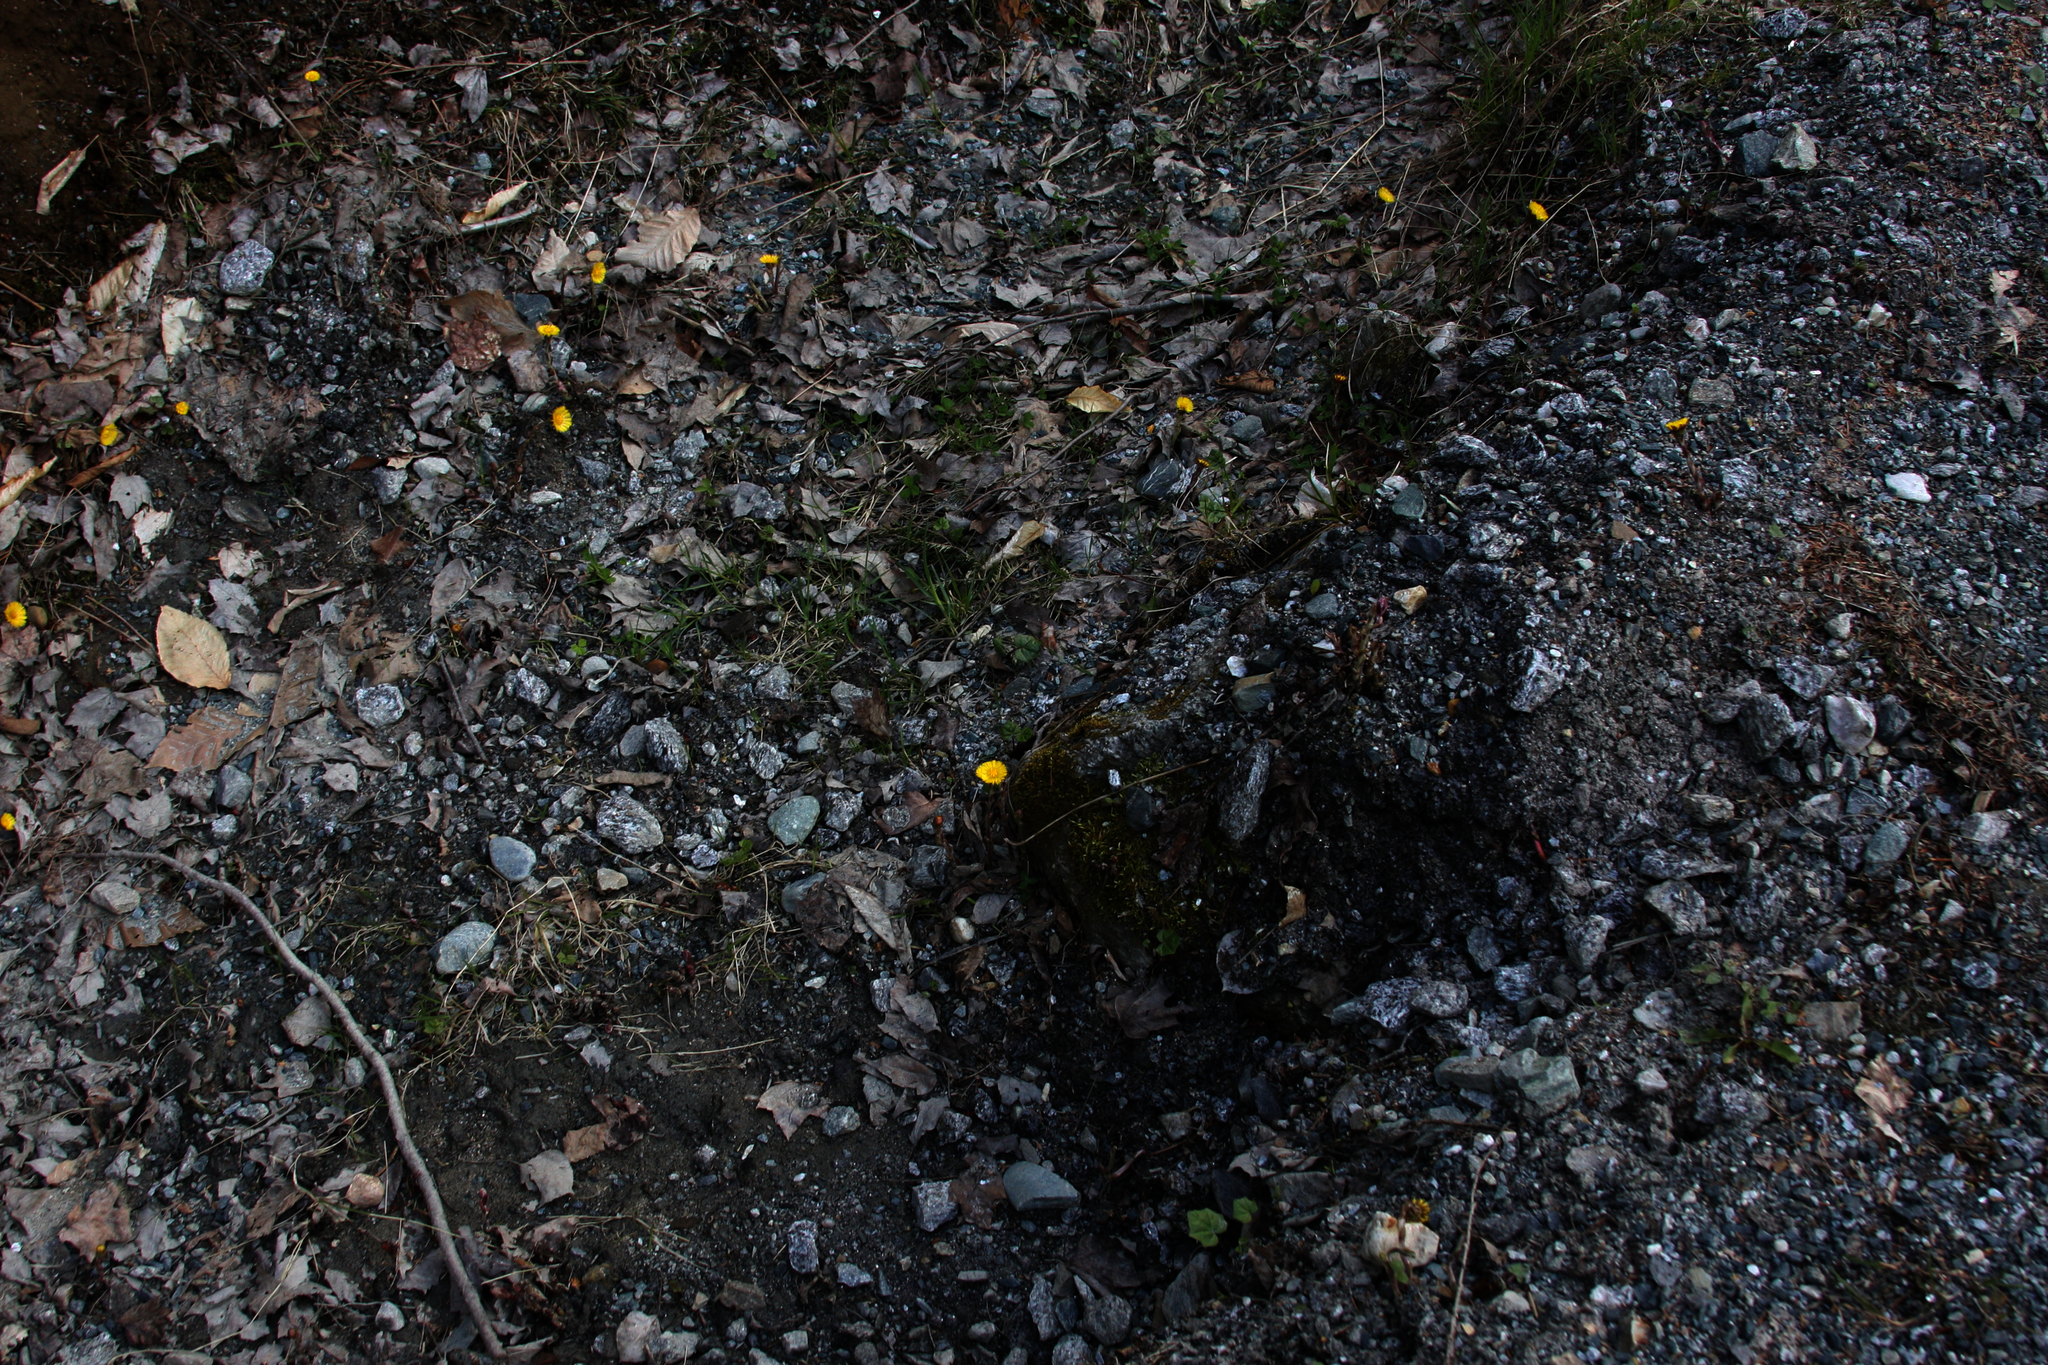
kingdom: Plantae
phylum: Tracheophyta
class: Magnoliopsida
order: Asterales
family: Asteraceae
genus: Tussilago
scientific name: Tussilago farfara
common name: Coltsfoot
